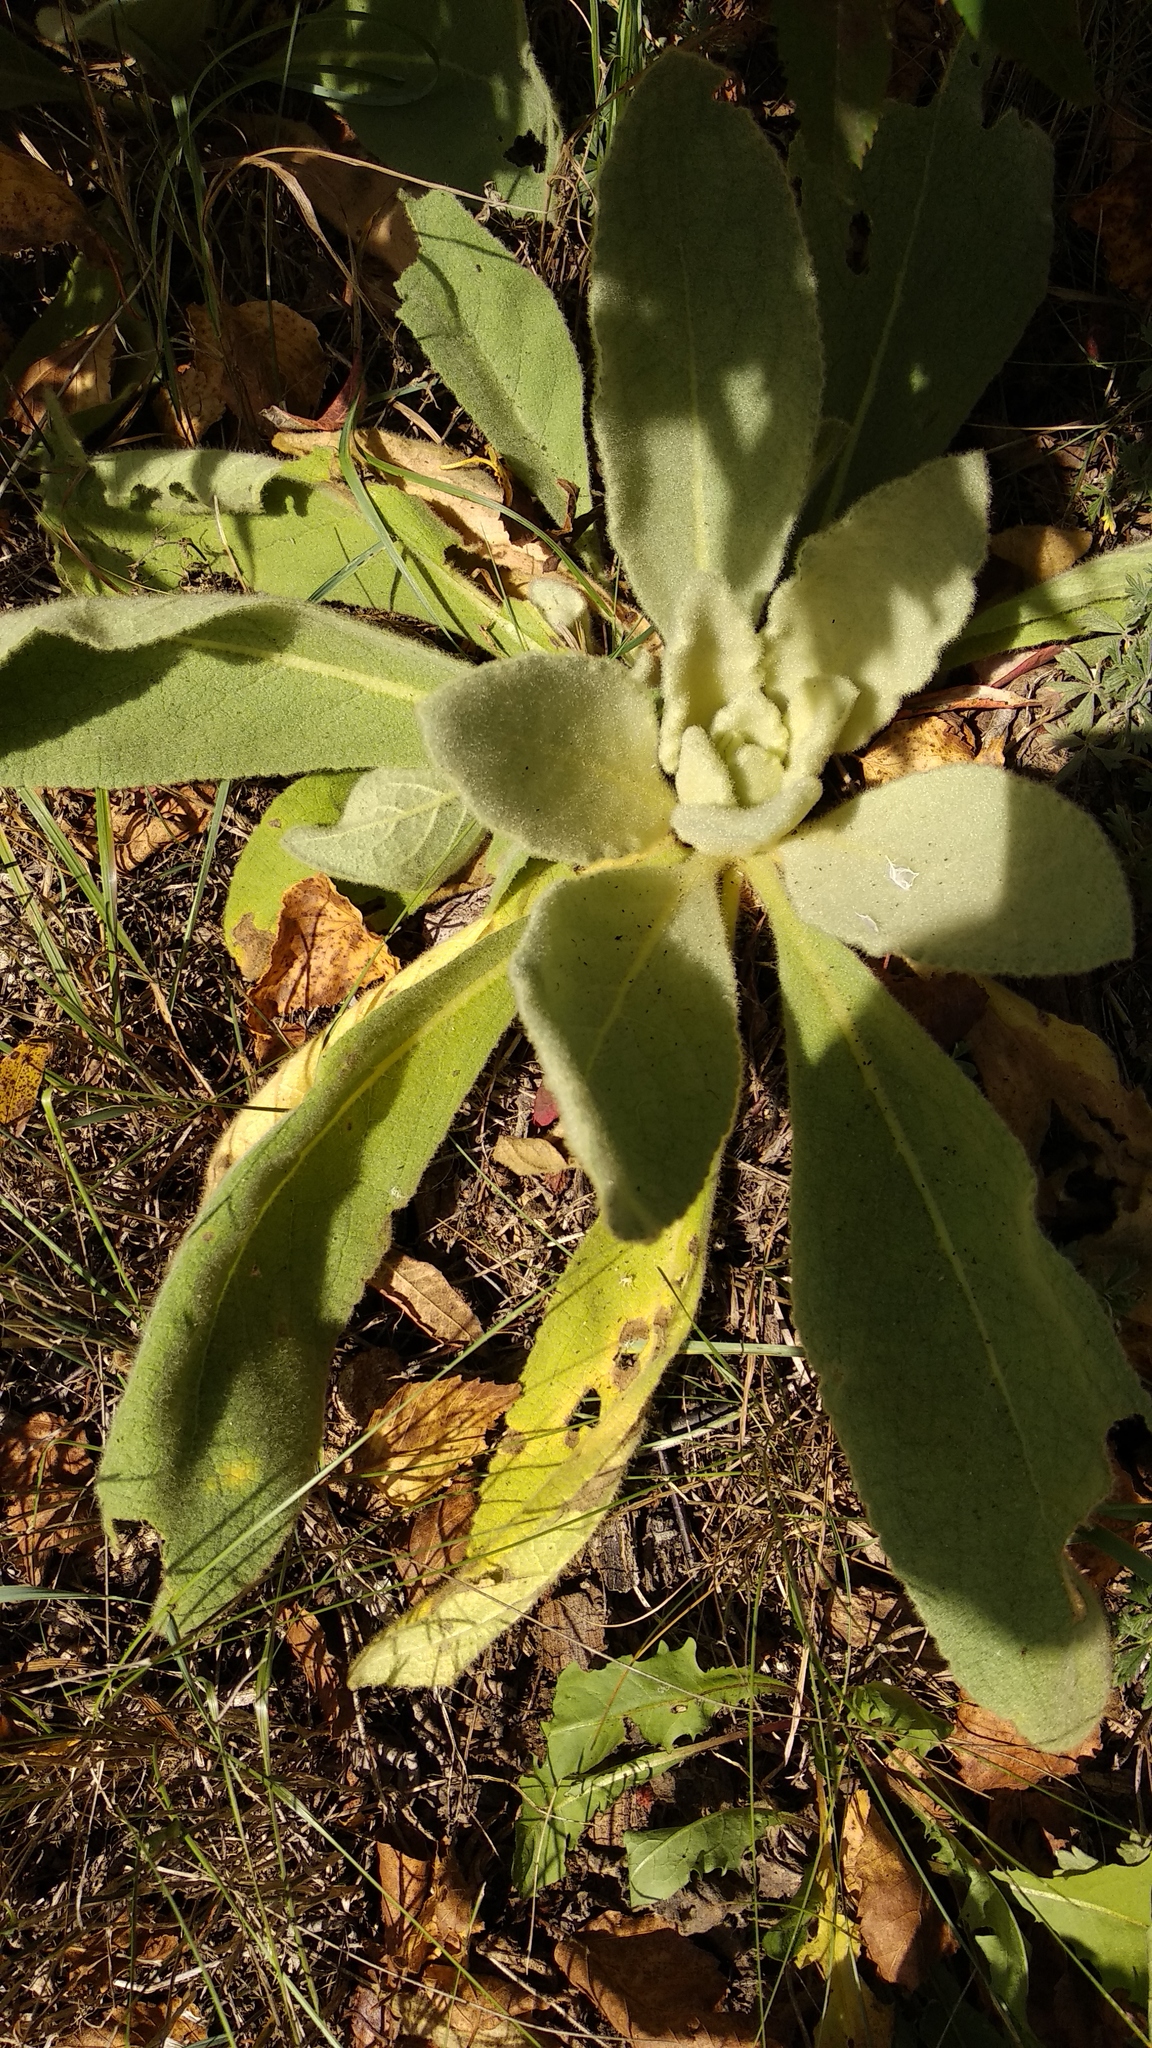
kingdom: Plantae
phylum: Tracheophyta
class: Magnoliopsida
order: Lamiales
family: Scrophulariaceae
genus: Verbascum
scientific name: Verbascum thapsus
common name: Common mullein
